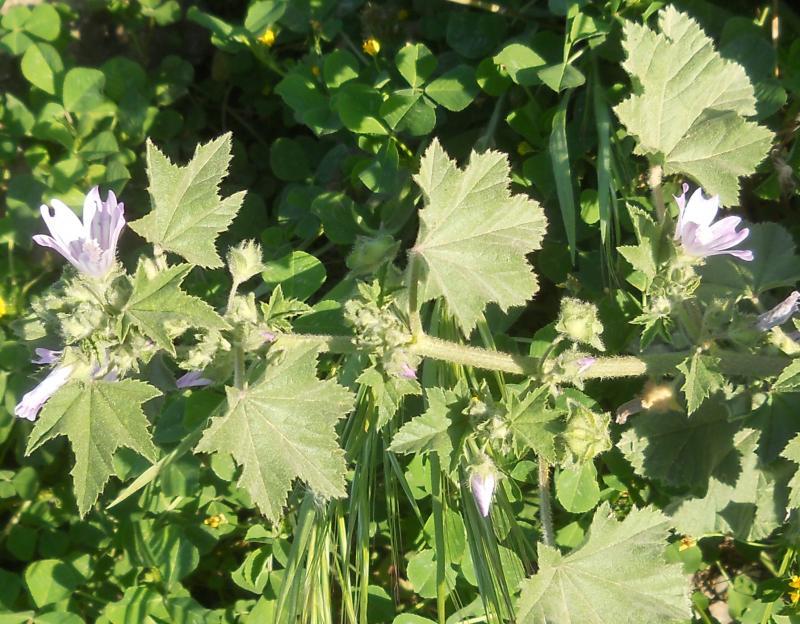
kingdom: Plantae
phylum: Tracheophyta
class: Magnoliopsida
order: Malvales
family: Malvaceae
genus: Malva
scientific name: Malva multiflora
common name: Cheeseweed
